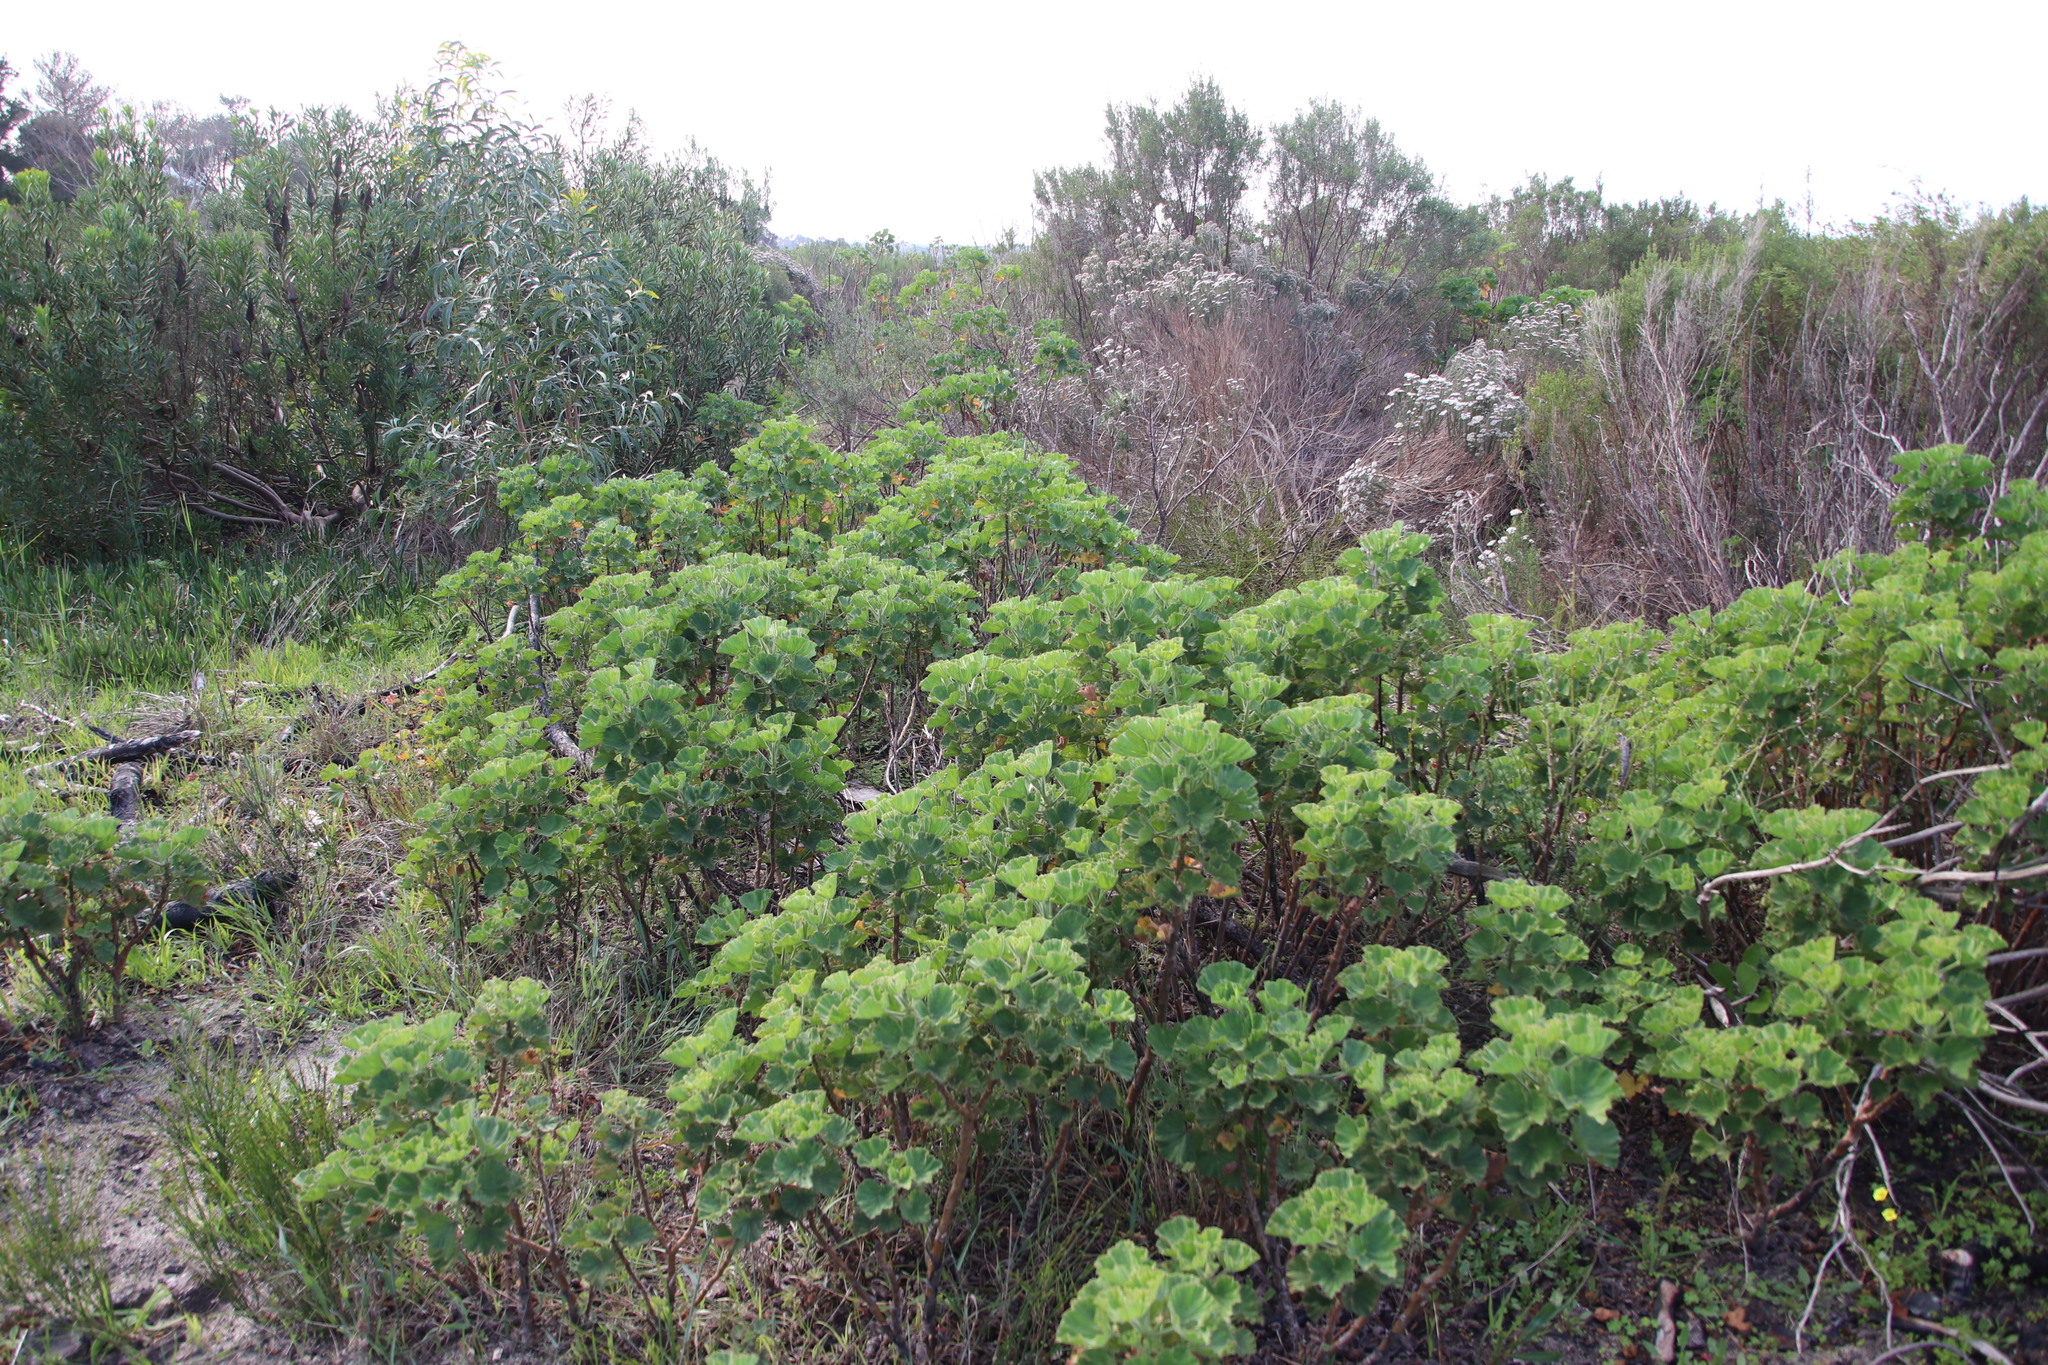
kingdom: Plantae
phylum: Tracheophyta
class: Magnoliopsida
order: Geraniales
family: Geraniaceae
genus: Pelargonium
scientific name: Pelargonium cucullatum
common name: Tree pelargonium
